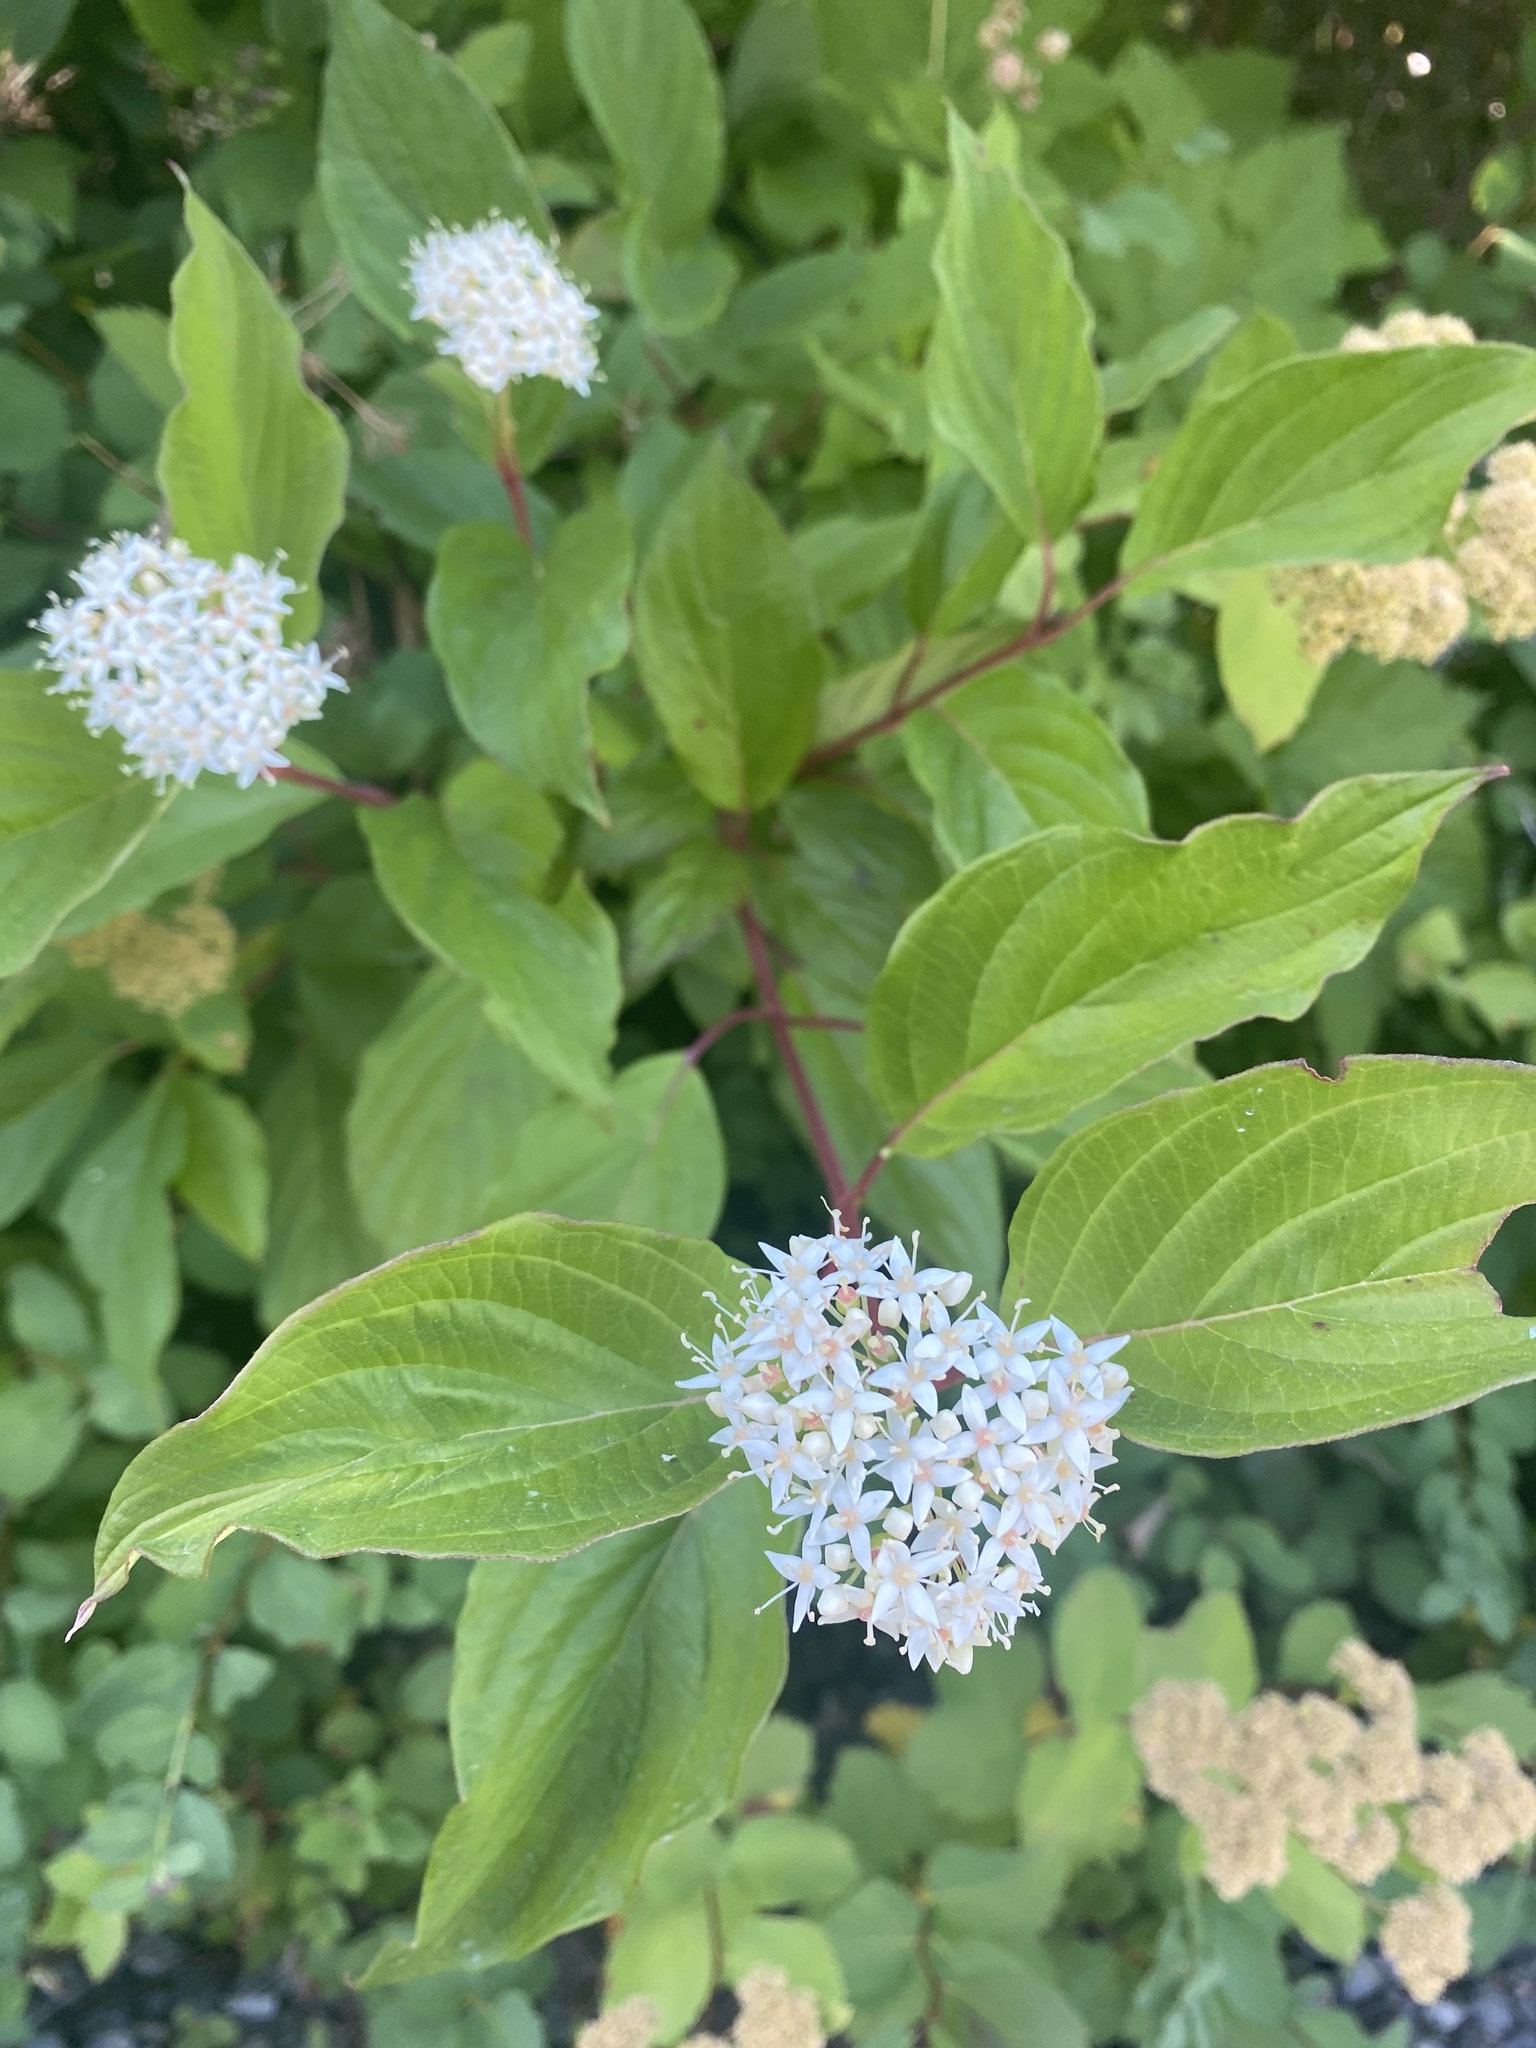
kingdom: Plantae
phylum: Tracheophyta
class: Magnoliopsida
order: Cornales
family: Cornaceae
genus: Cornus
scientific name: Cornus sericea
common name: Red-osier dogwood
